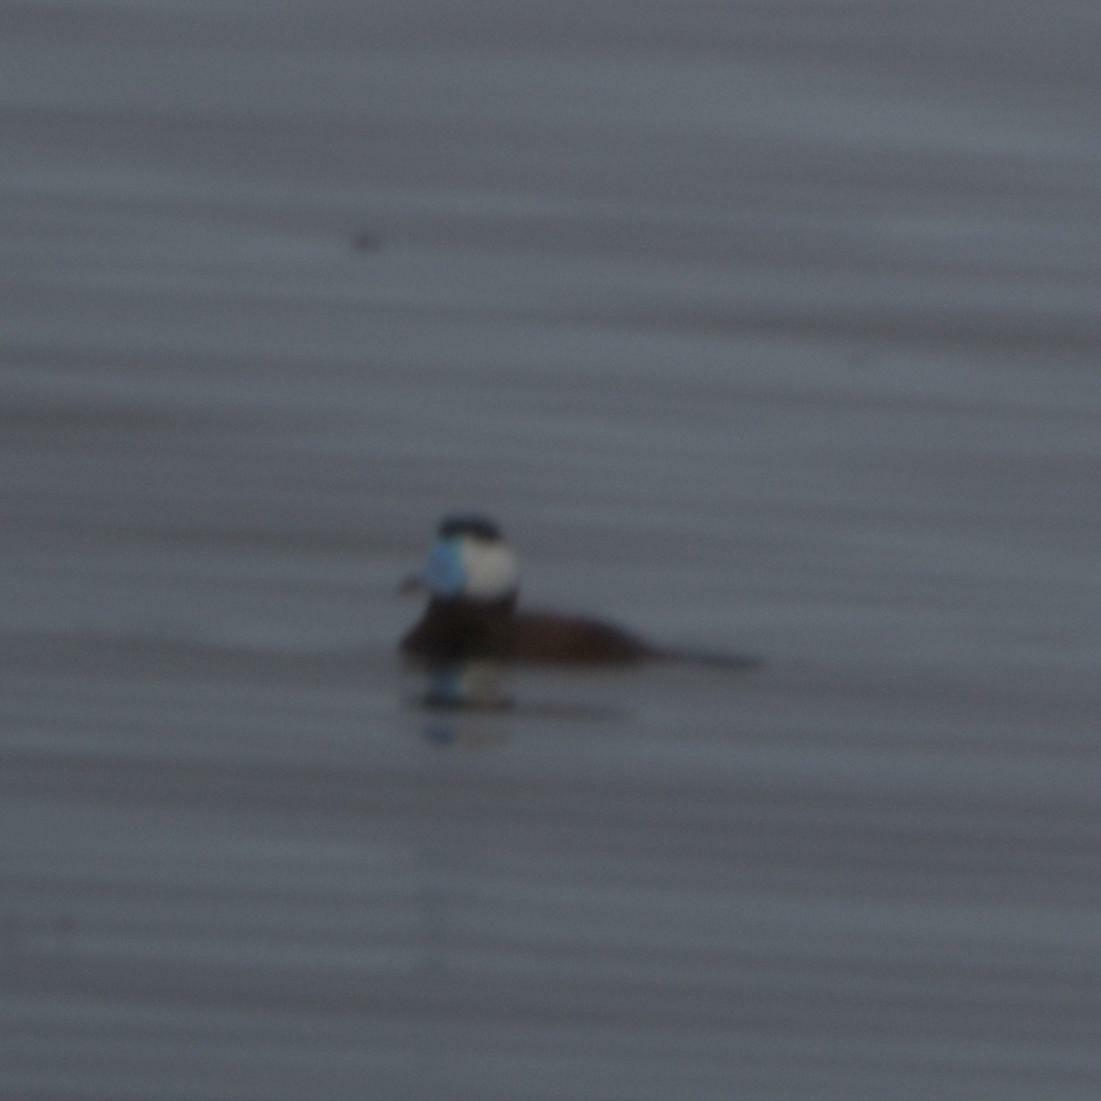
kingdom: Animalia
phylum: Chordata
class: Aves
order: Anseriformes
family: Anatidae
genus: Oxyura
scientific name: Oxyura jamaicensis
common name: Ruddy duck
